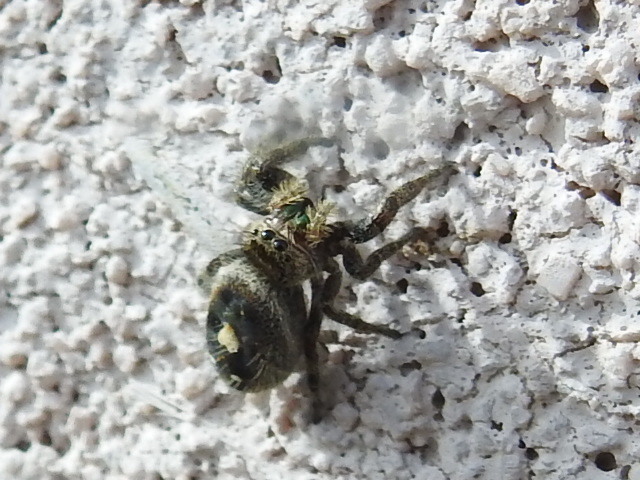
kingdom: Animalia
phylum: Arthropoda
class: Arachnida
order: Araneae
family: Salticidae
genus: Phidippus
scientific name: Phidippus audax
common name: Bold jumper
